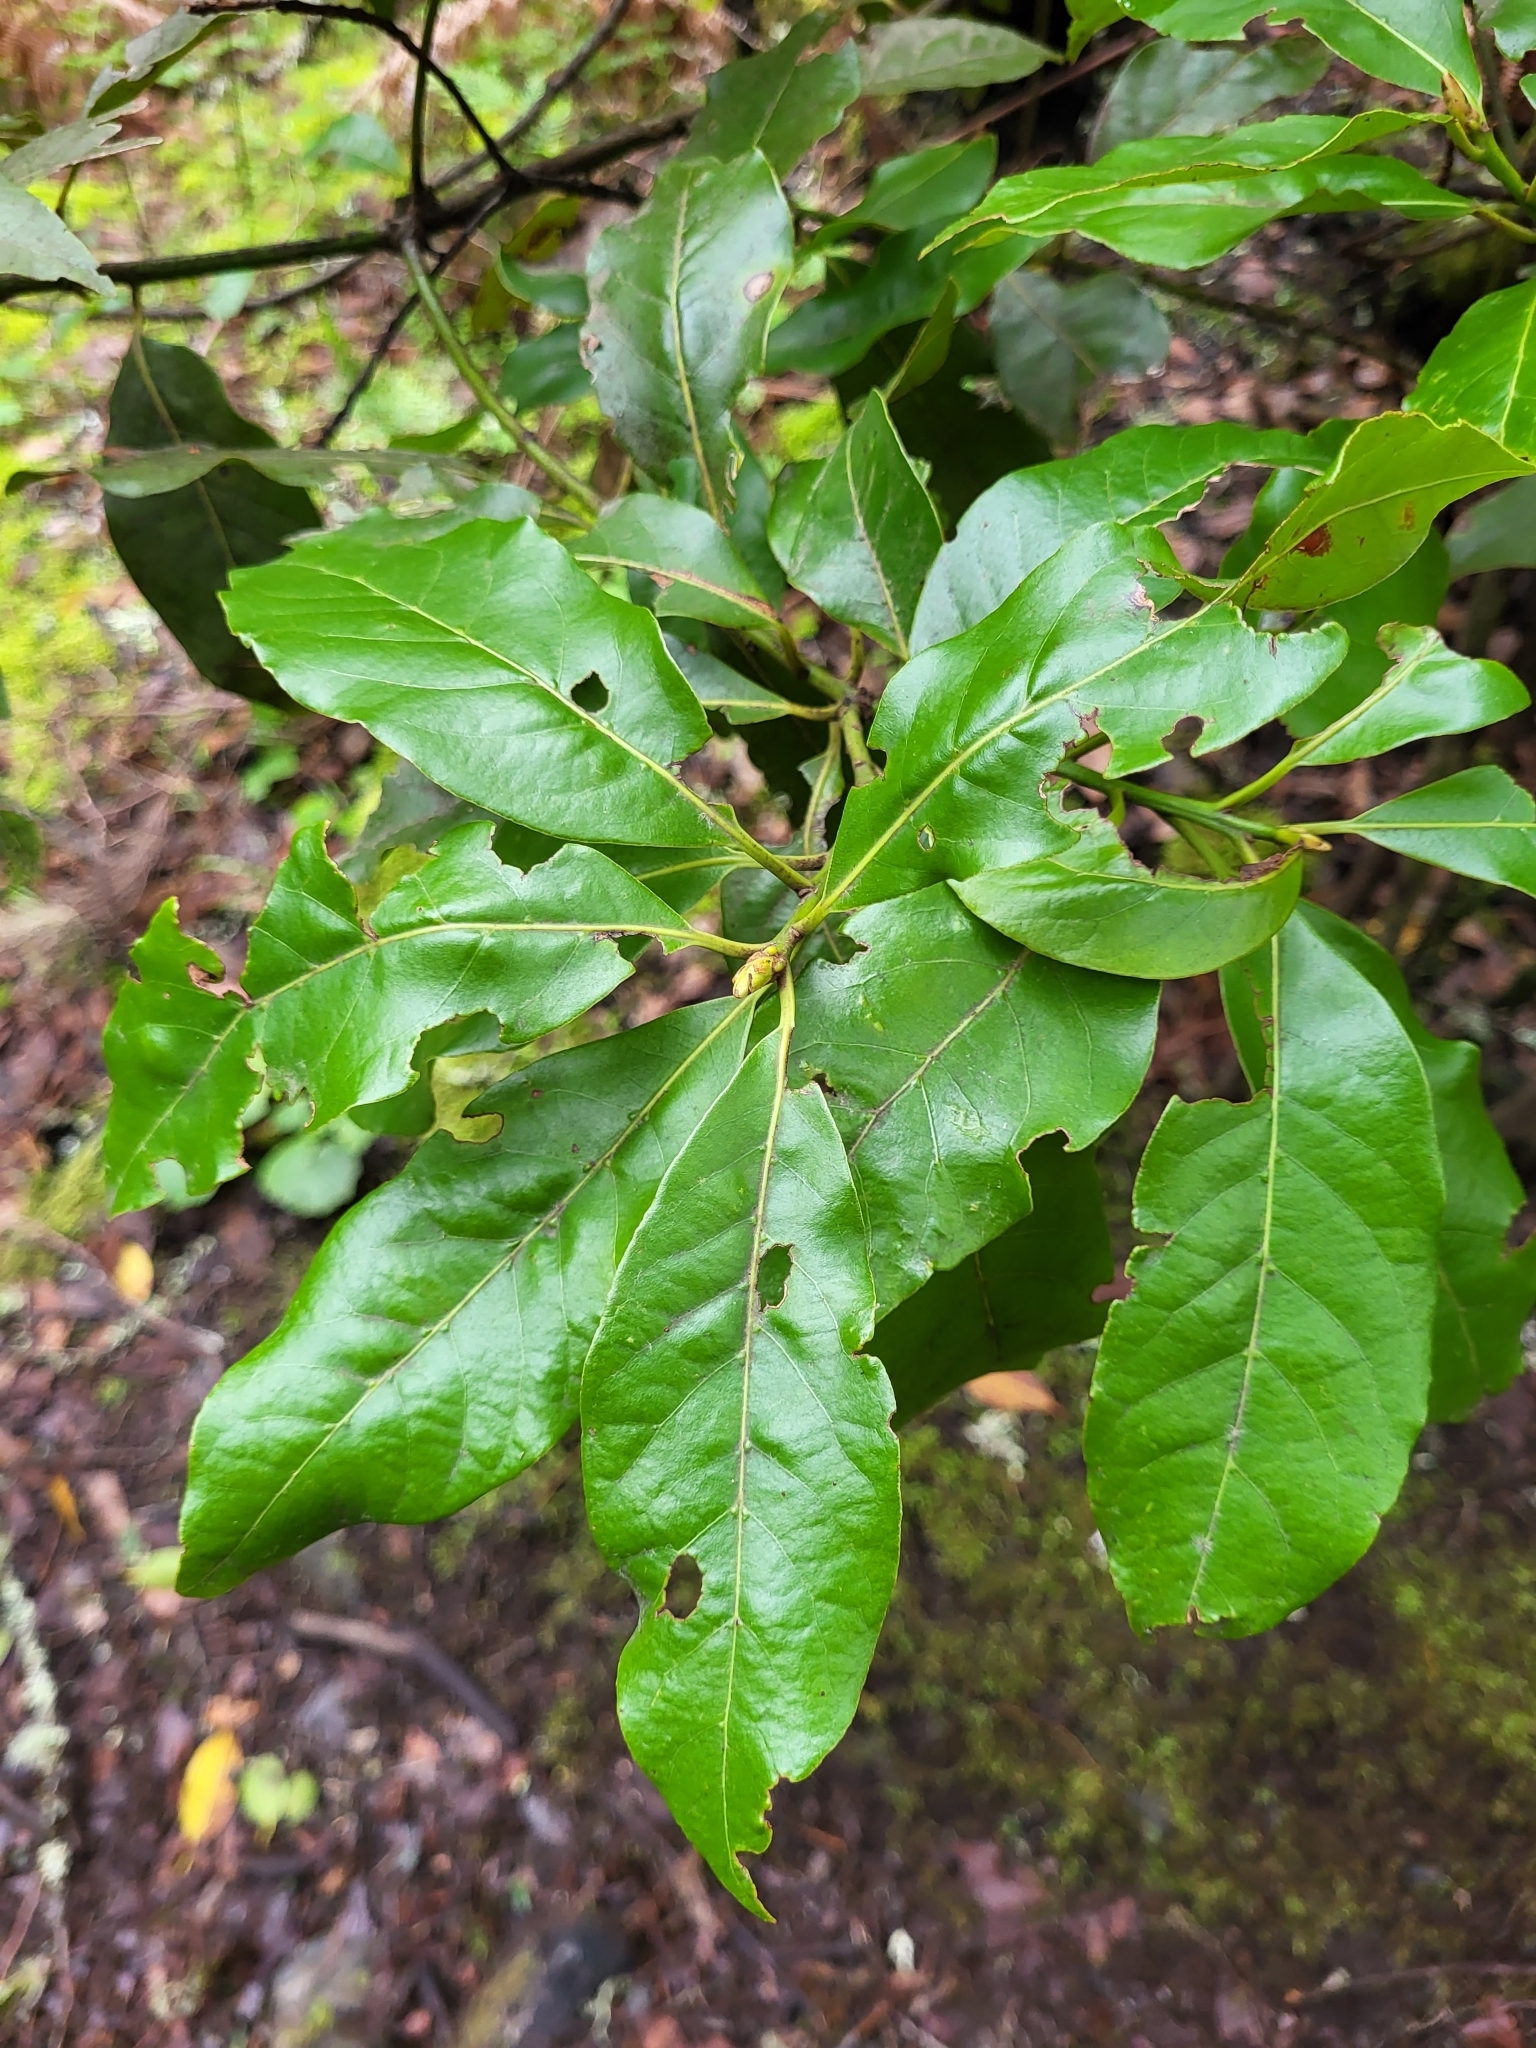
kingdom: Plantae
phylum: Tracheophyta
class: Magnoliopsida
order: Laurales
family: Lauraceae
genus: Laurus
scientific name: Laurus novocanariensis
